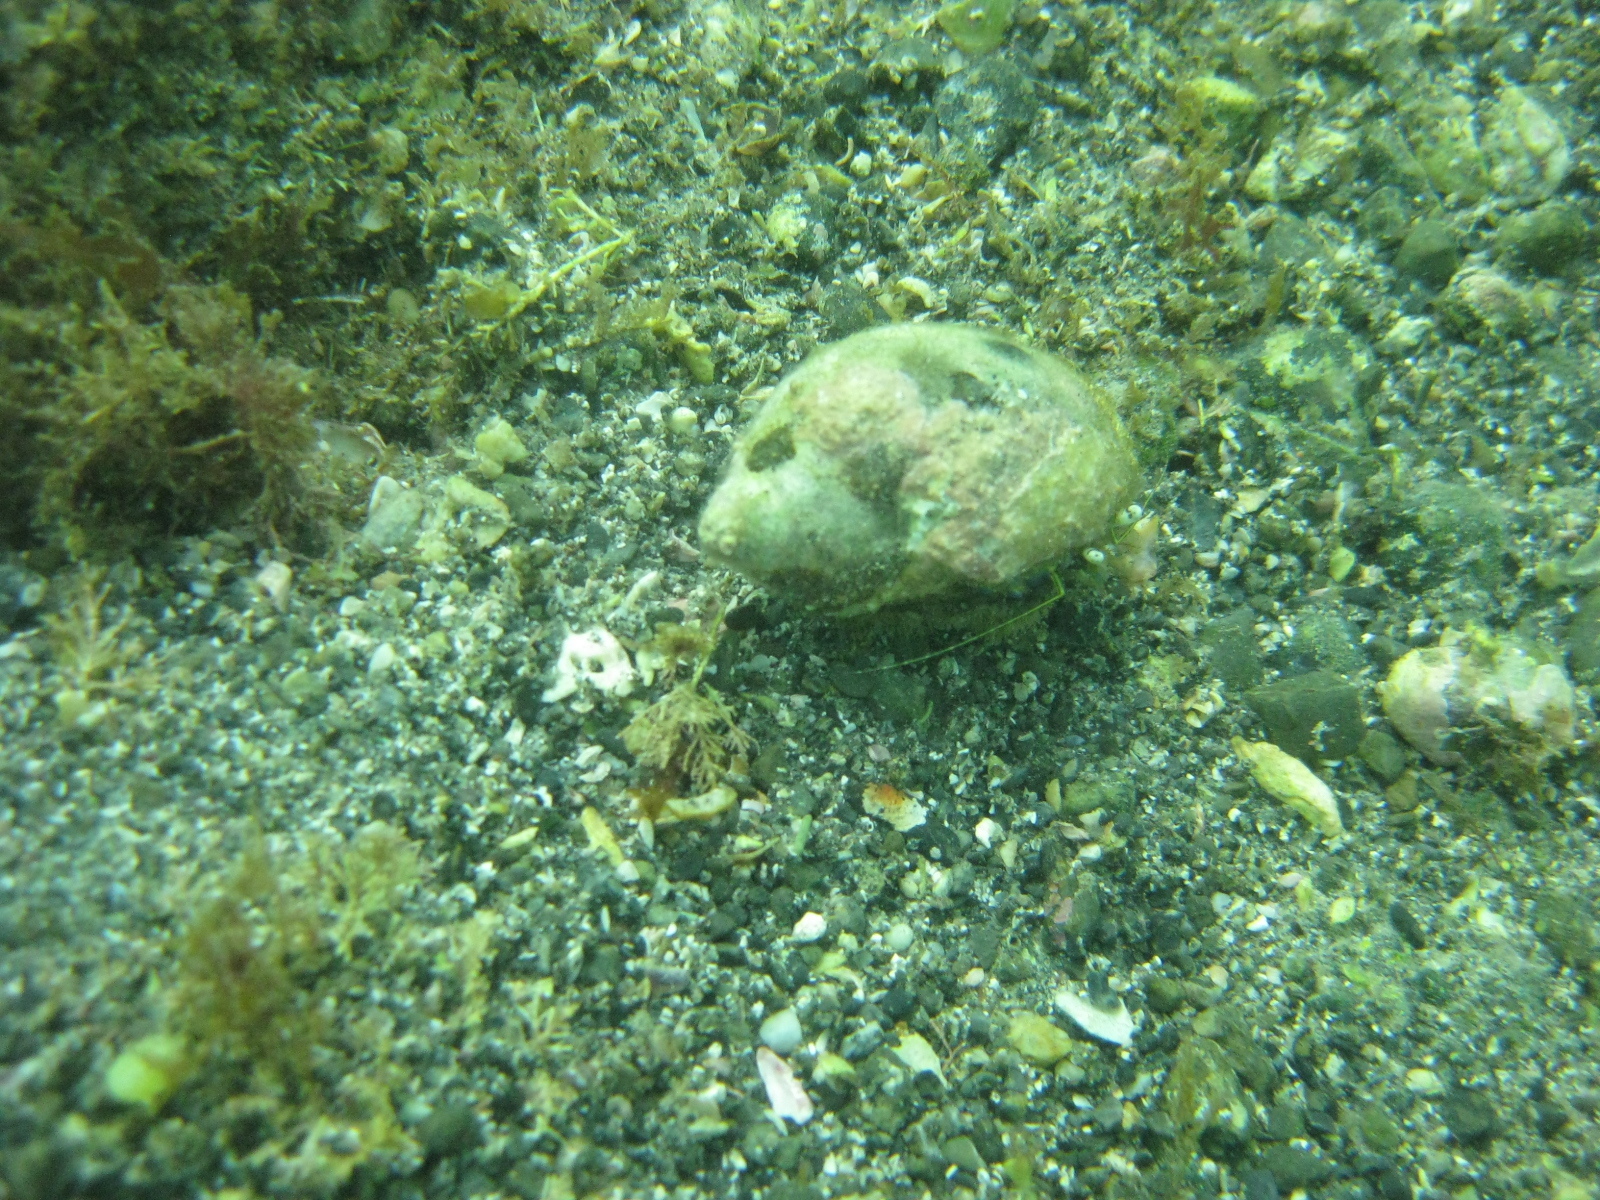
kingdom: Animalia
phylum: Arthropoda
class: Malacostraca
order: Decapoda
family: Paguridae
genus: Pagurus
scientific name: Pagurus novizealandiae
